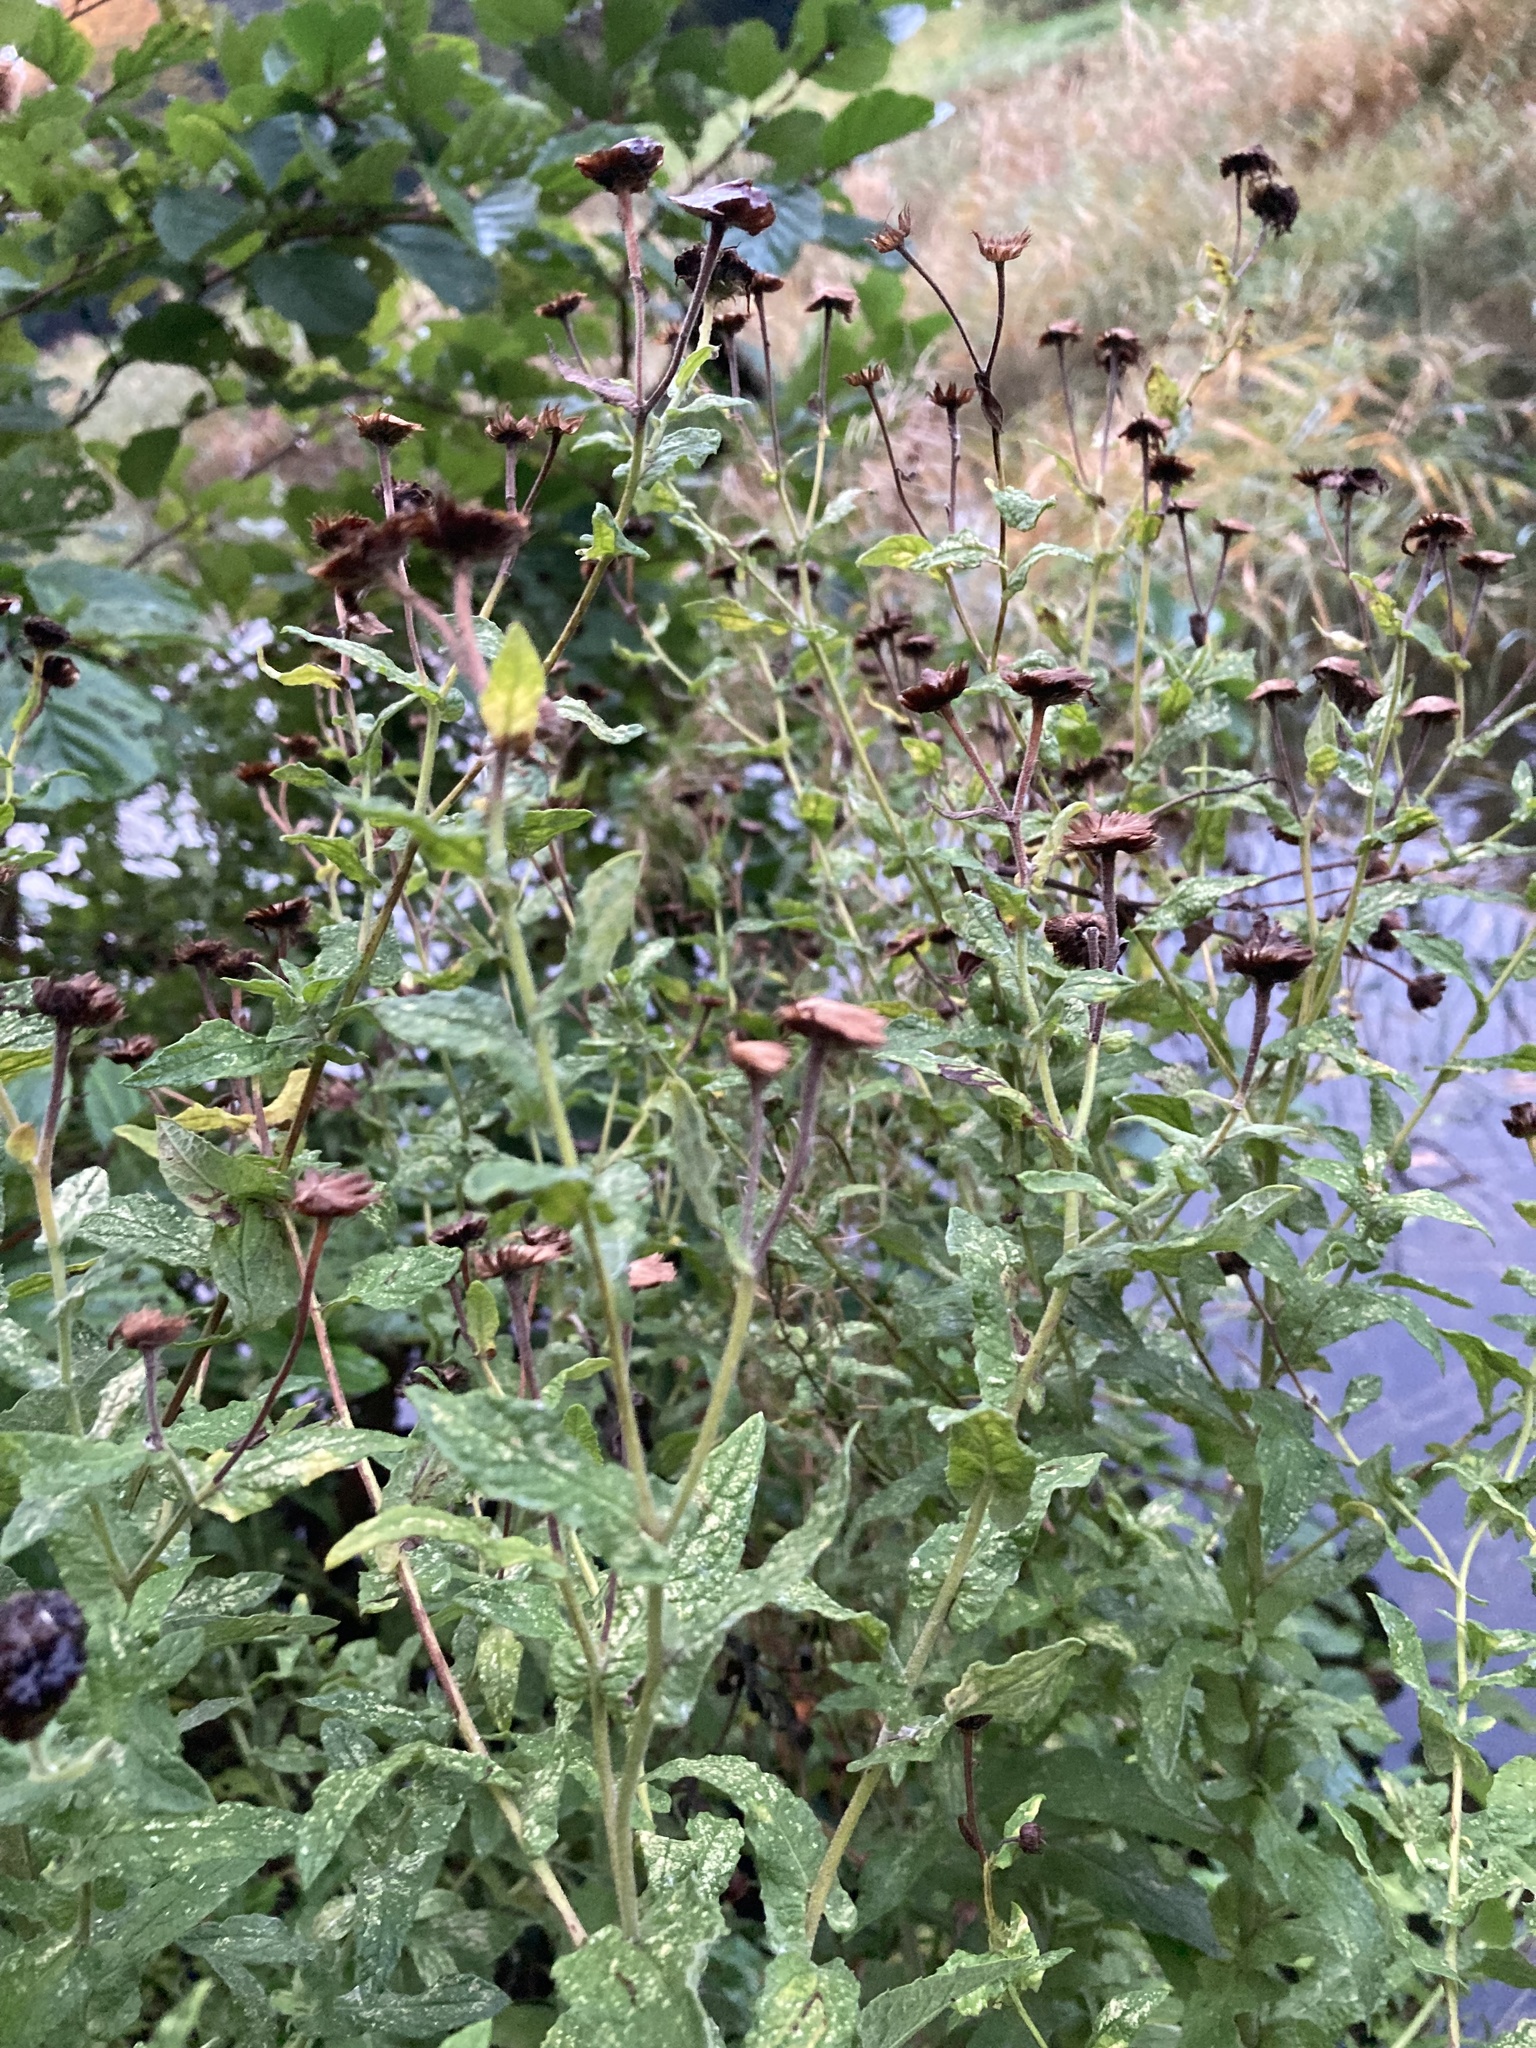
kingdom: Plantae
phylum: Tracheophyta
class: Magnoliopsida
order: Asterales
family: Asteraceae
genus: Pulicaria
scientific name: Pulicaria dysenterica
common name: Common fleabane
